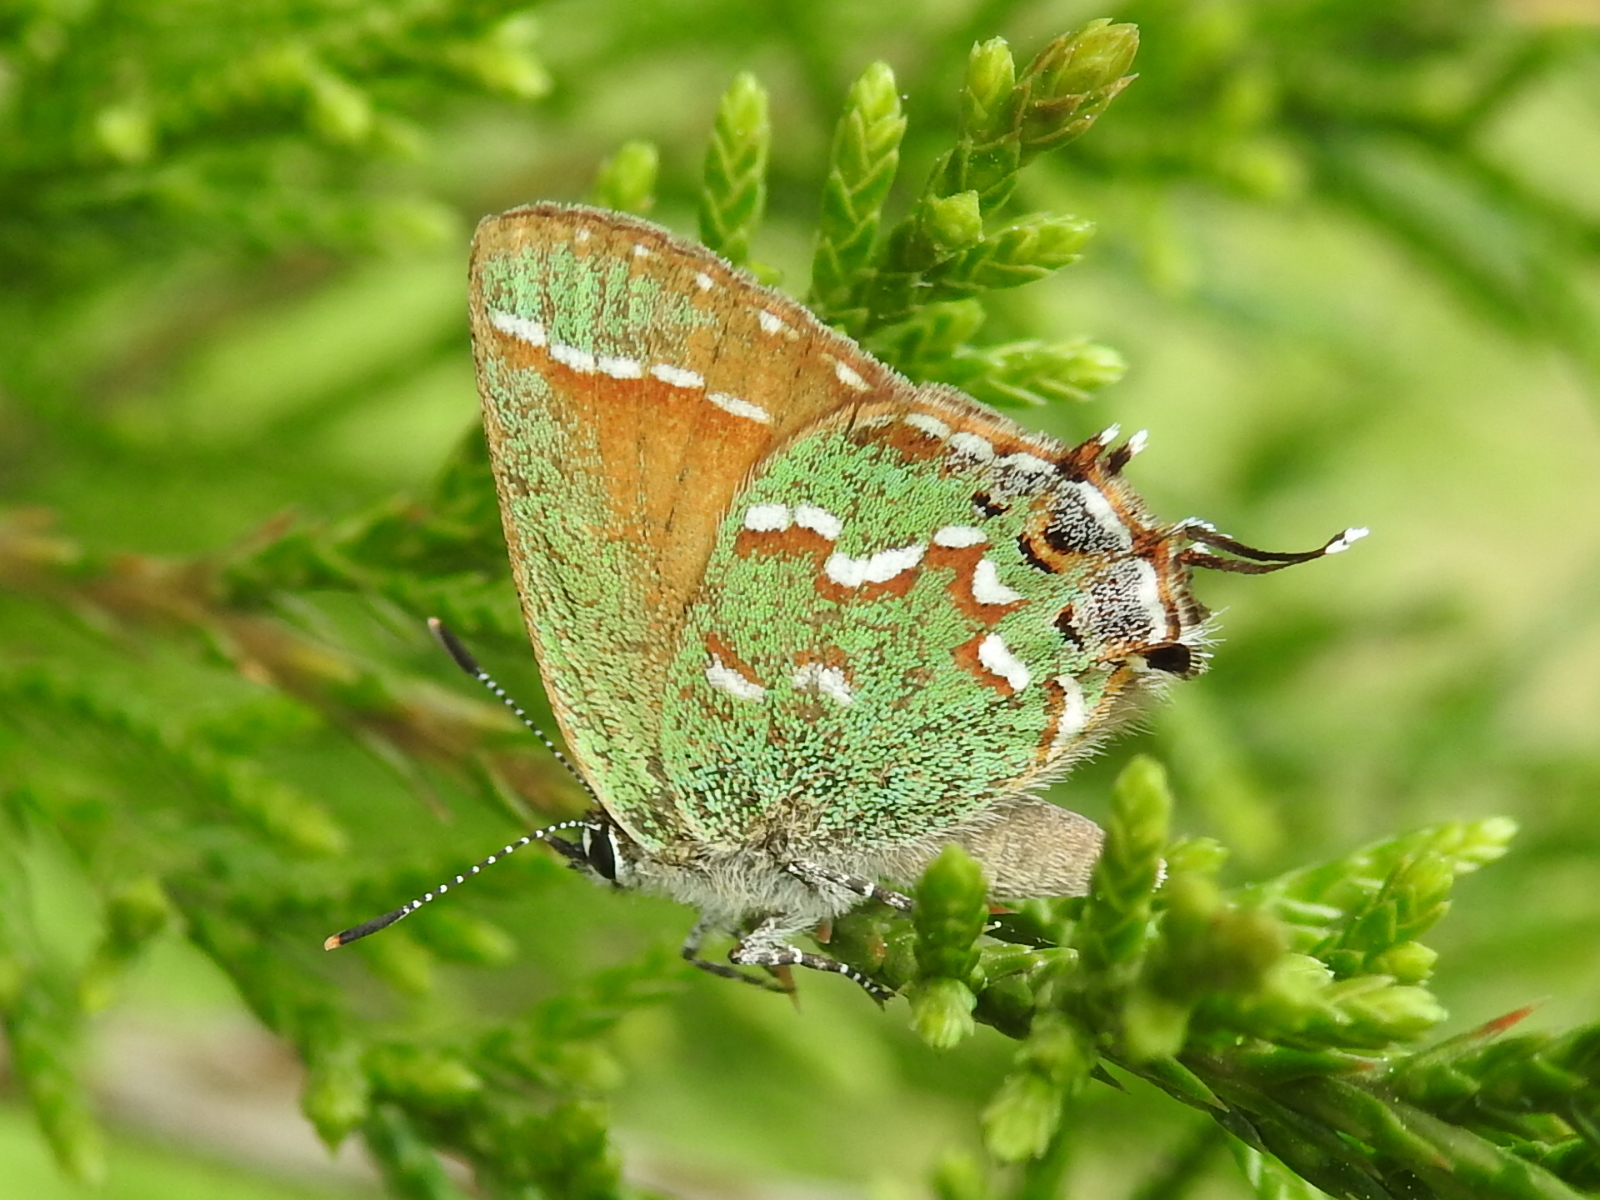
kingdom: Animalia
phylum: Arthropoda
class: Insecta
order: Lepidoptera
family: Lycaenidae
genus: Mitoura
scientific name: Mitoura gryneus
